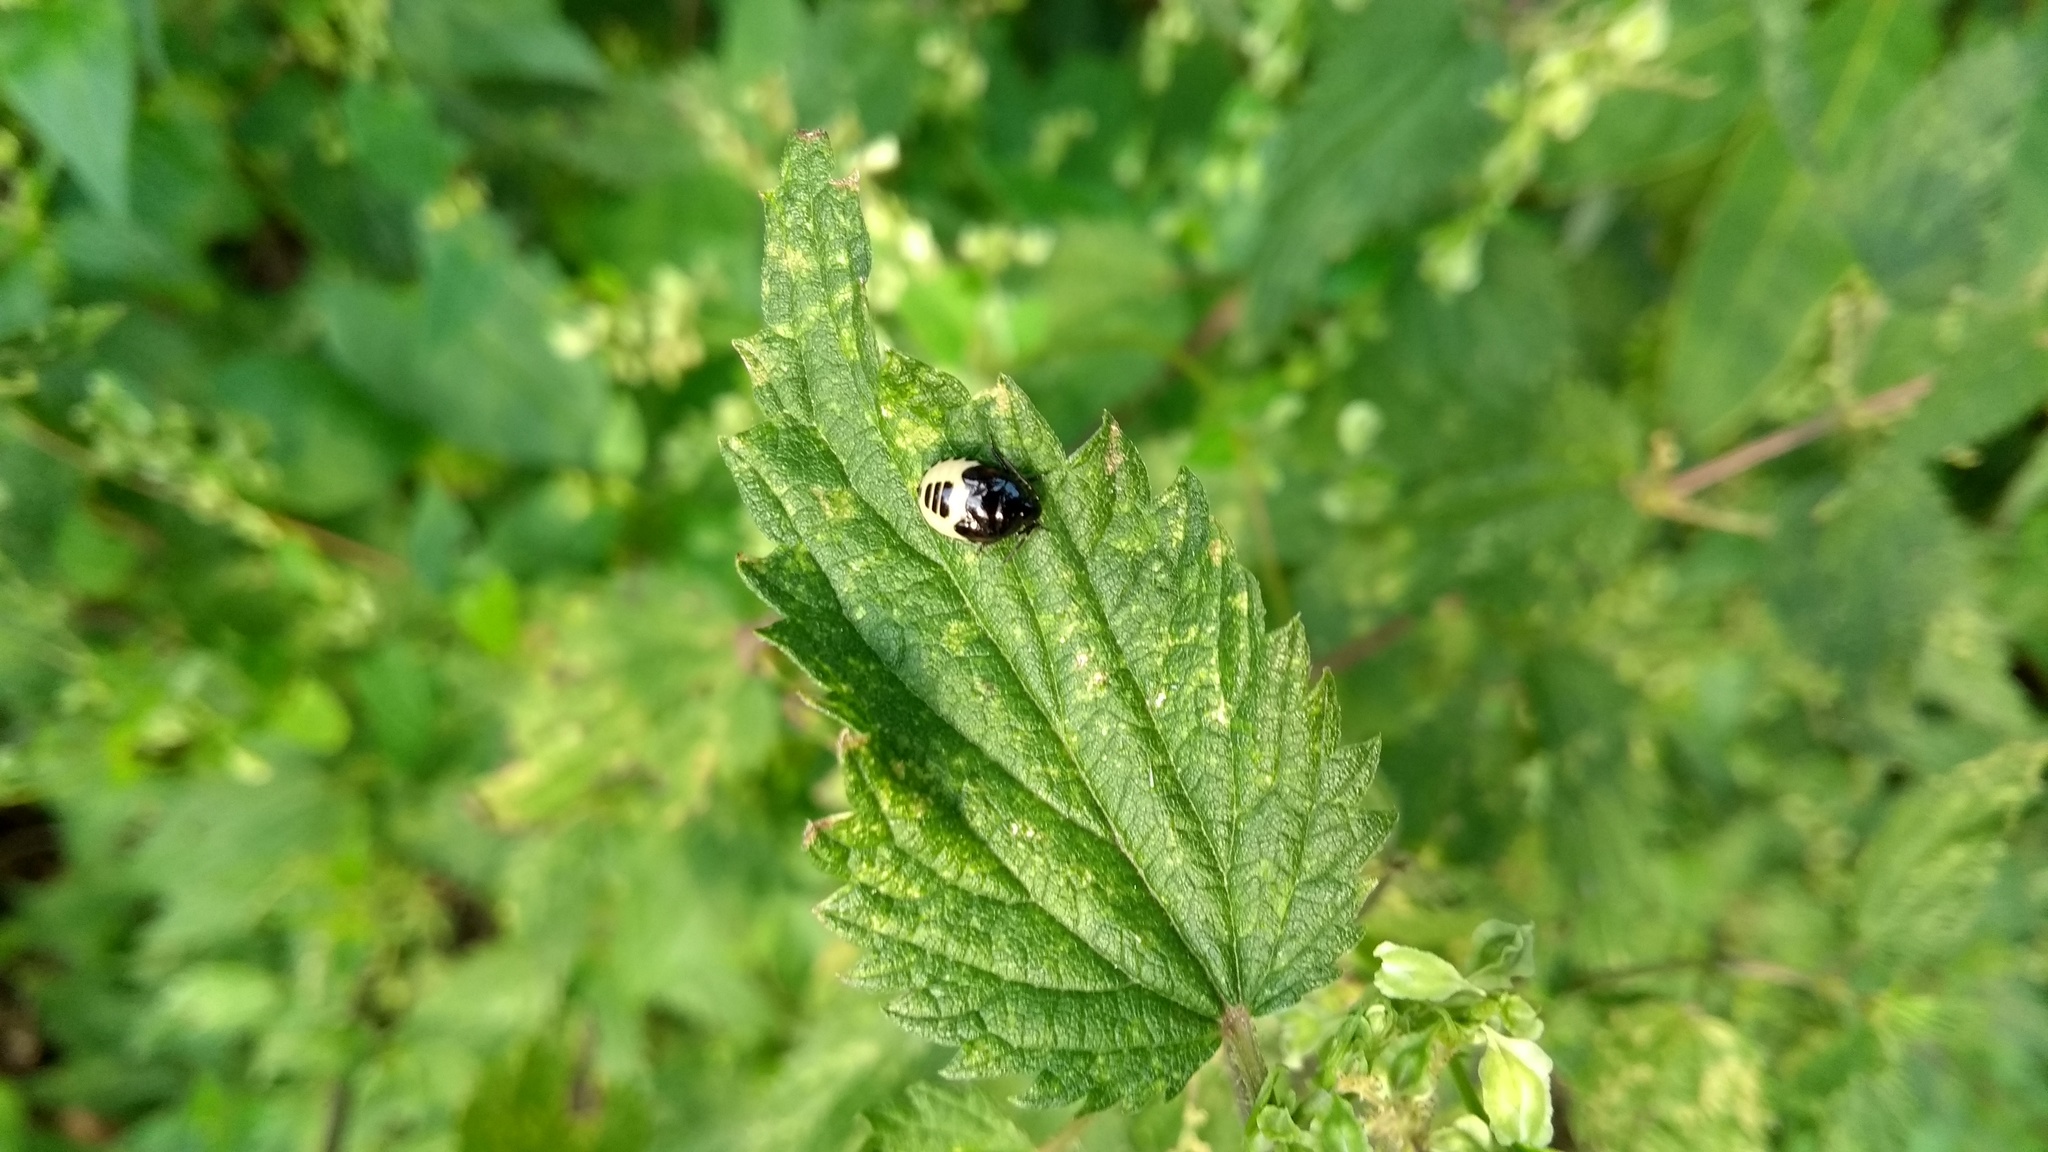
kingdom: Animalia
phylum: Arthropoda
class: Insecta
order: Hemiptera
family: Cydnidae
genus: Tritomegas
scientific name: Tritomegas
